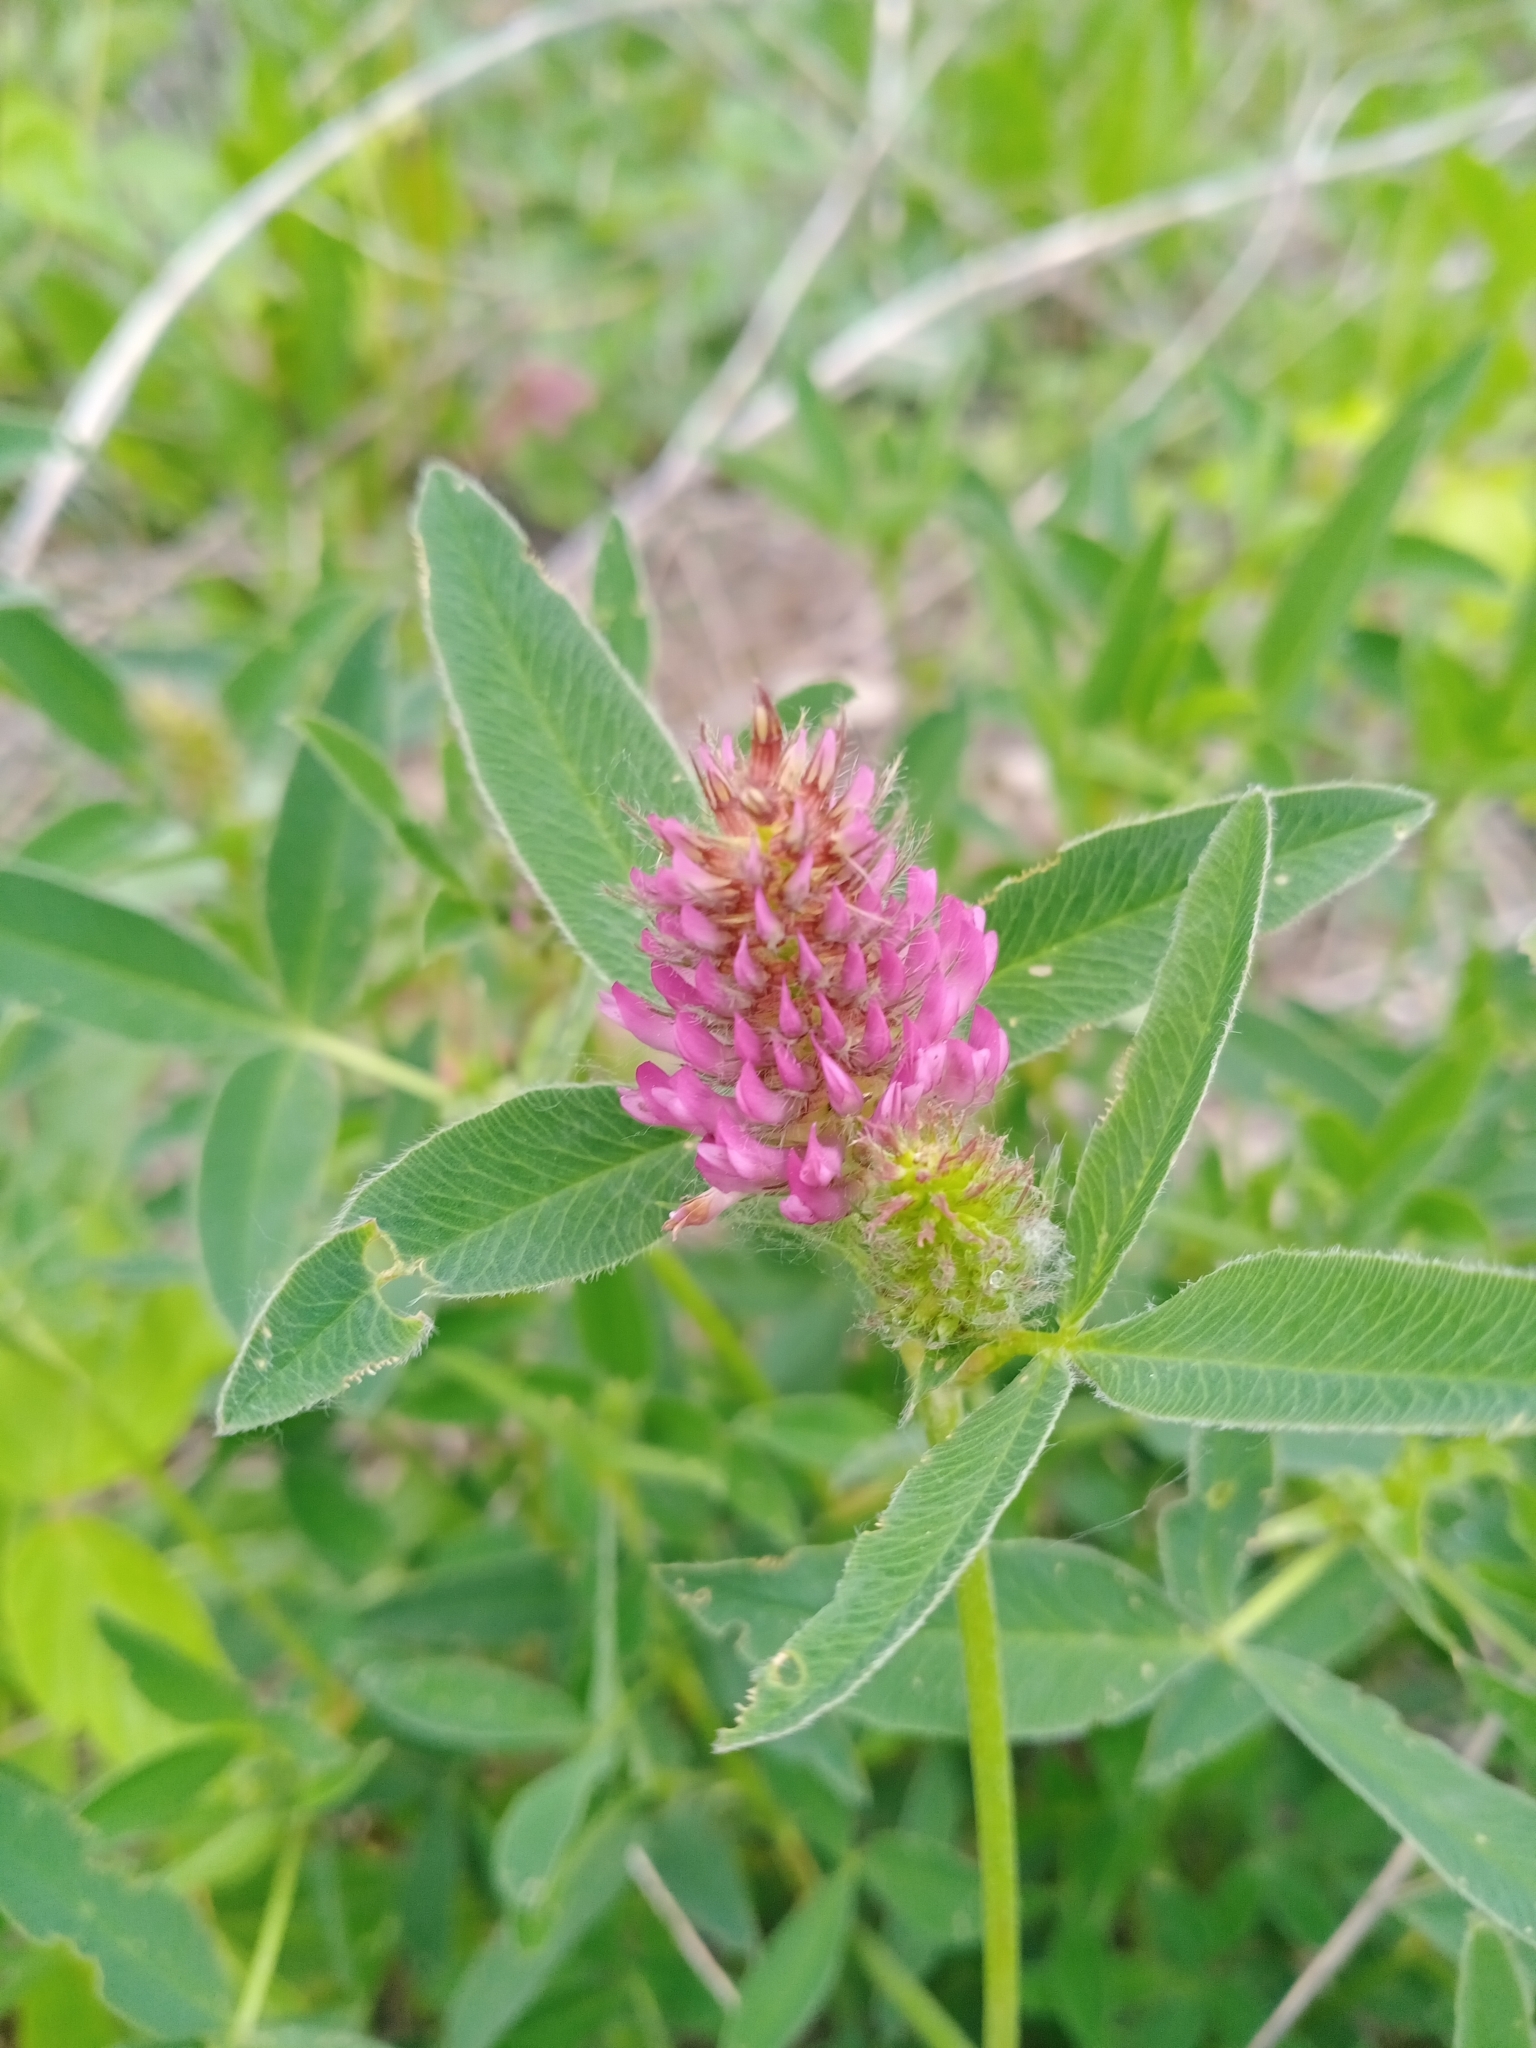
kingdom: Plantae
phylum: Tracheophyta
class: Magnoliopsida
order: Fabales
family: Fabaceae
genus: Trifolium
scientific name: Trifolium medium
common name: Zigzag clover
